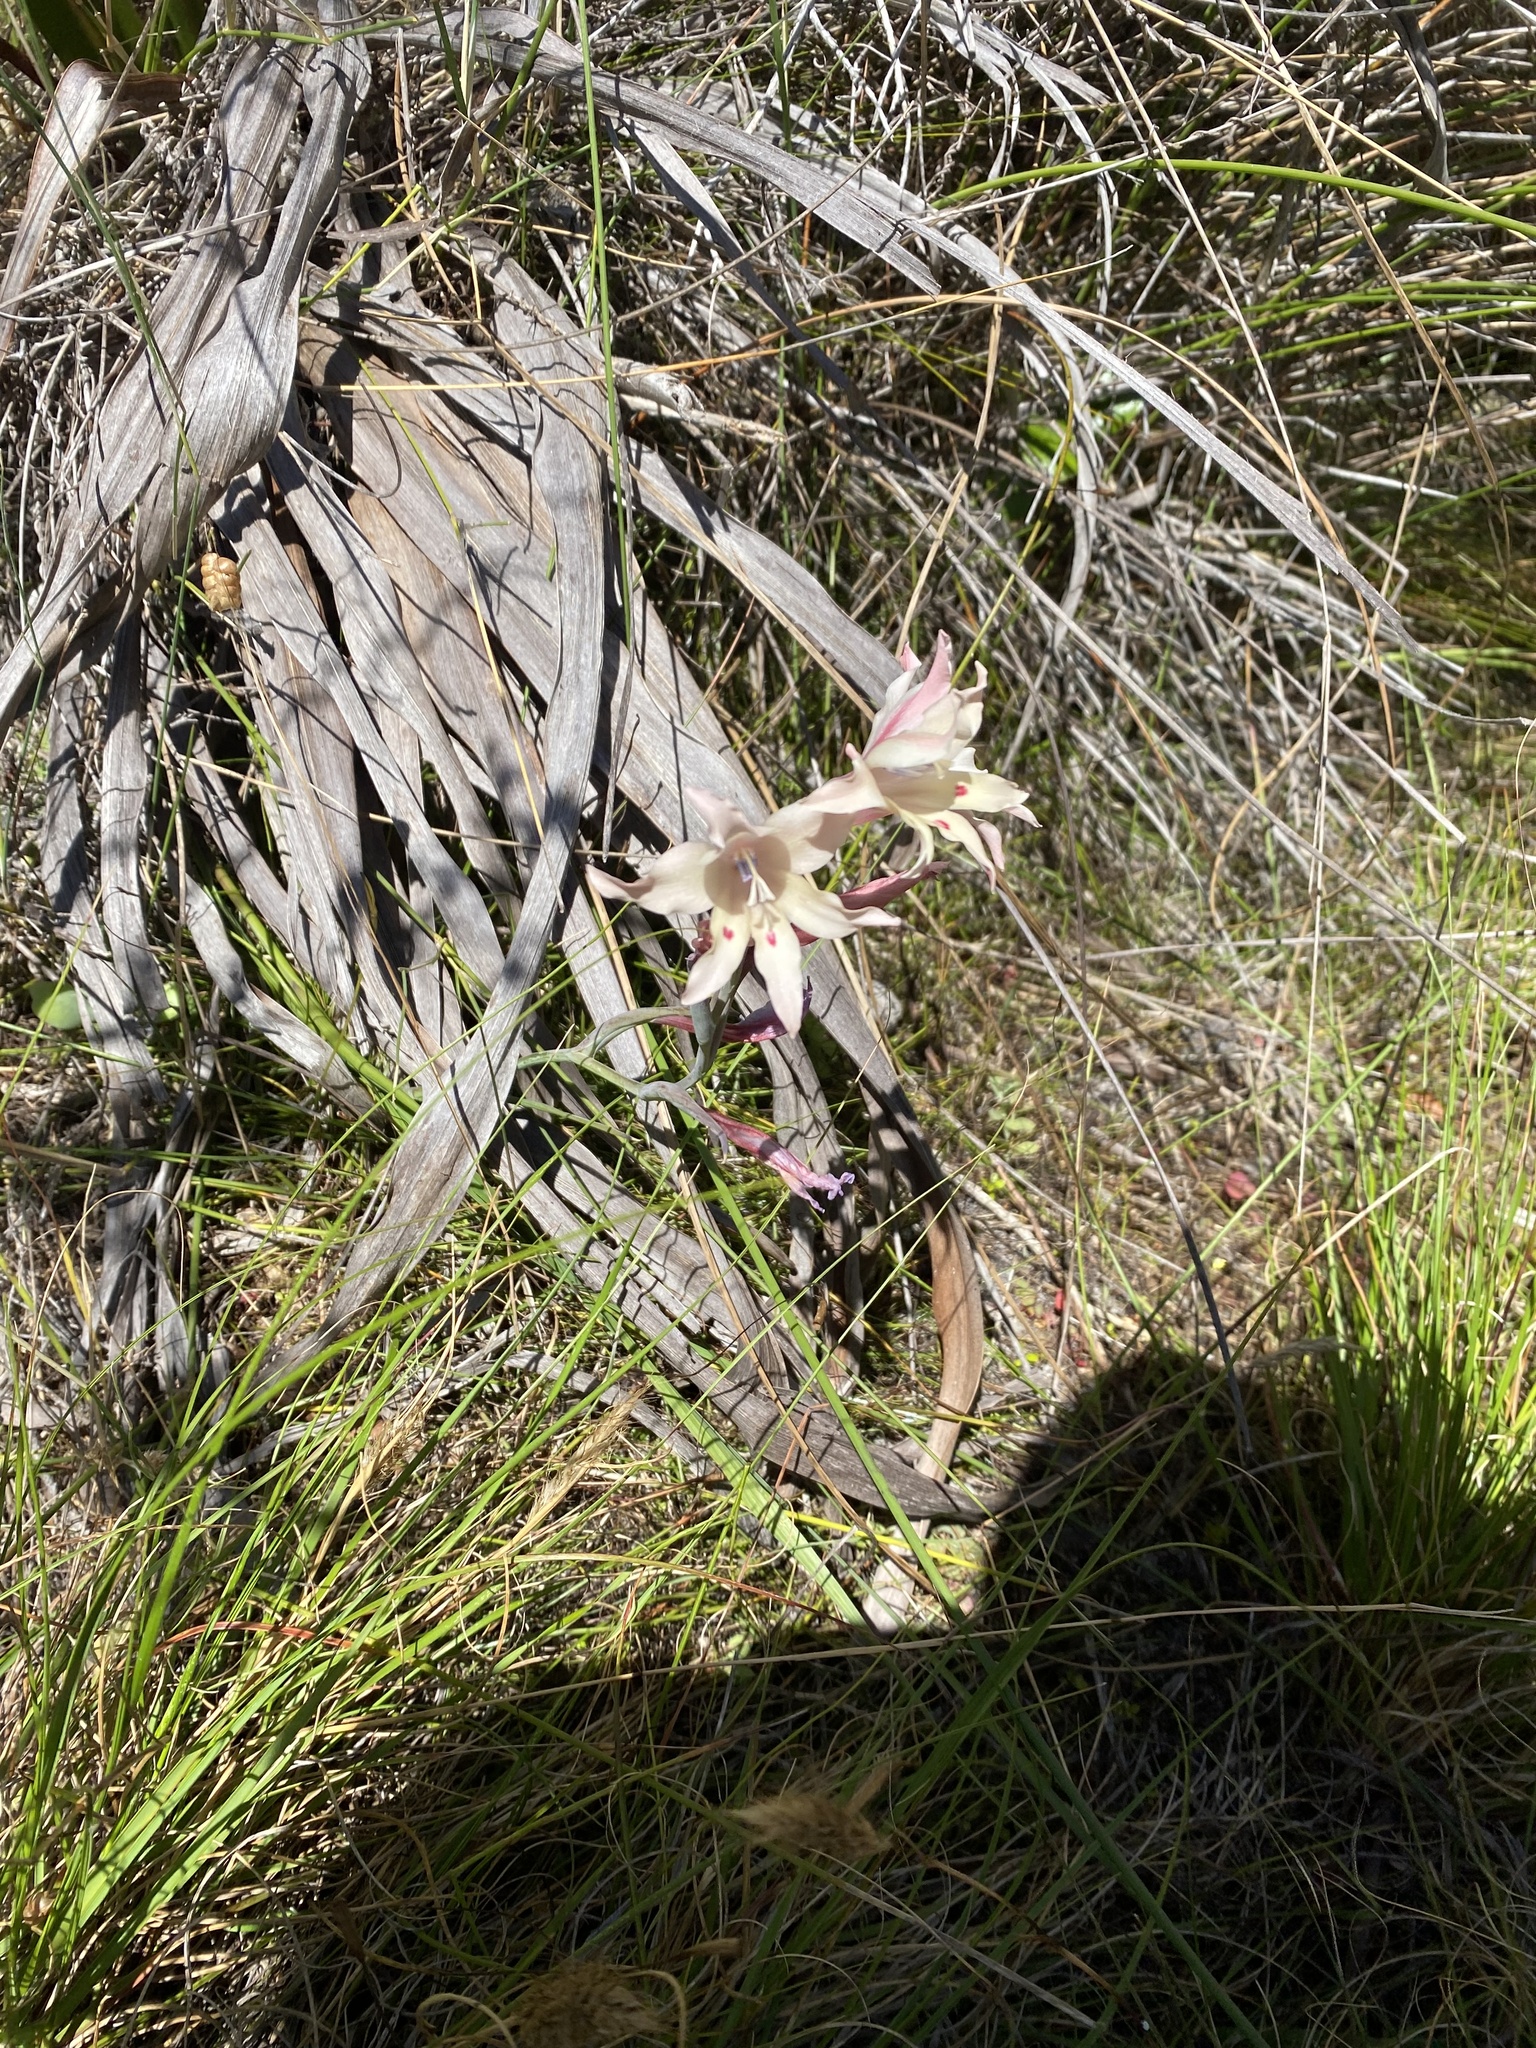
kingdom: Plantae
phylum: Tracheophyta
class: Liliopsida
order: Asparagales
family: Iridaceae
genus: Gladiolus
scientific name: Gladiolus carneus
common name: Painted-lady
